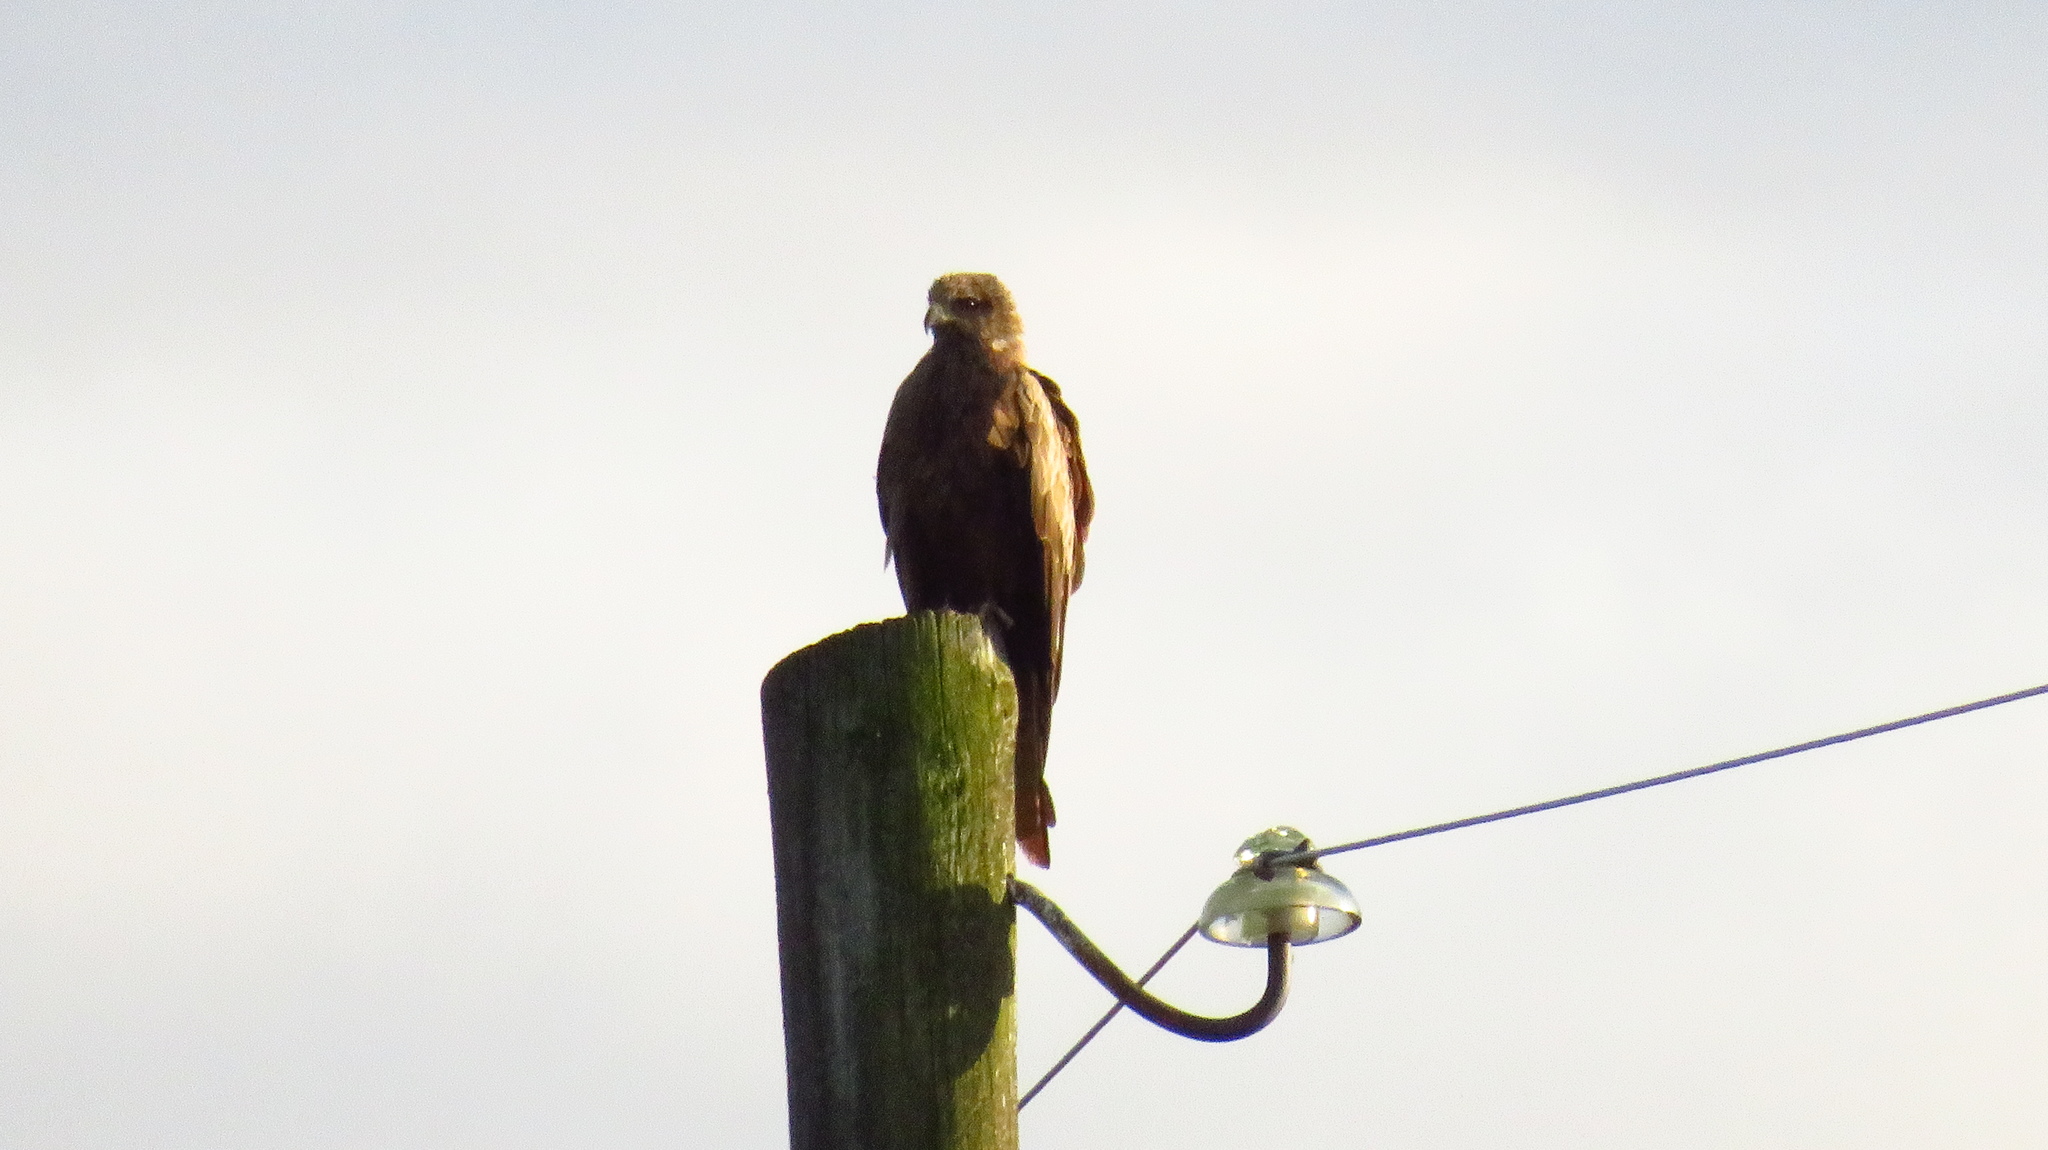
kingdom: Animalia
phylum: Chordata
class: Aves
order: Accipitriformes
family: Accipitridae
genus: Milvus
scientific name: Milvus migrans
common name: Black kite
